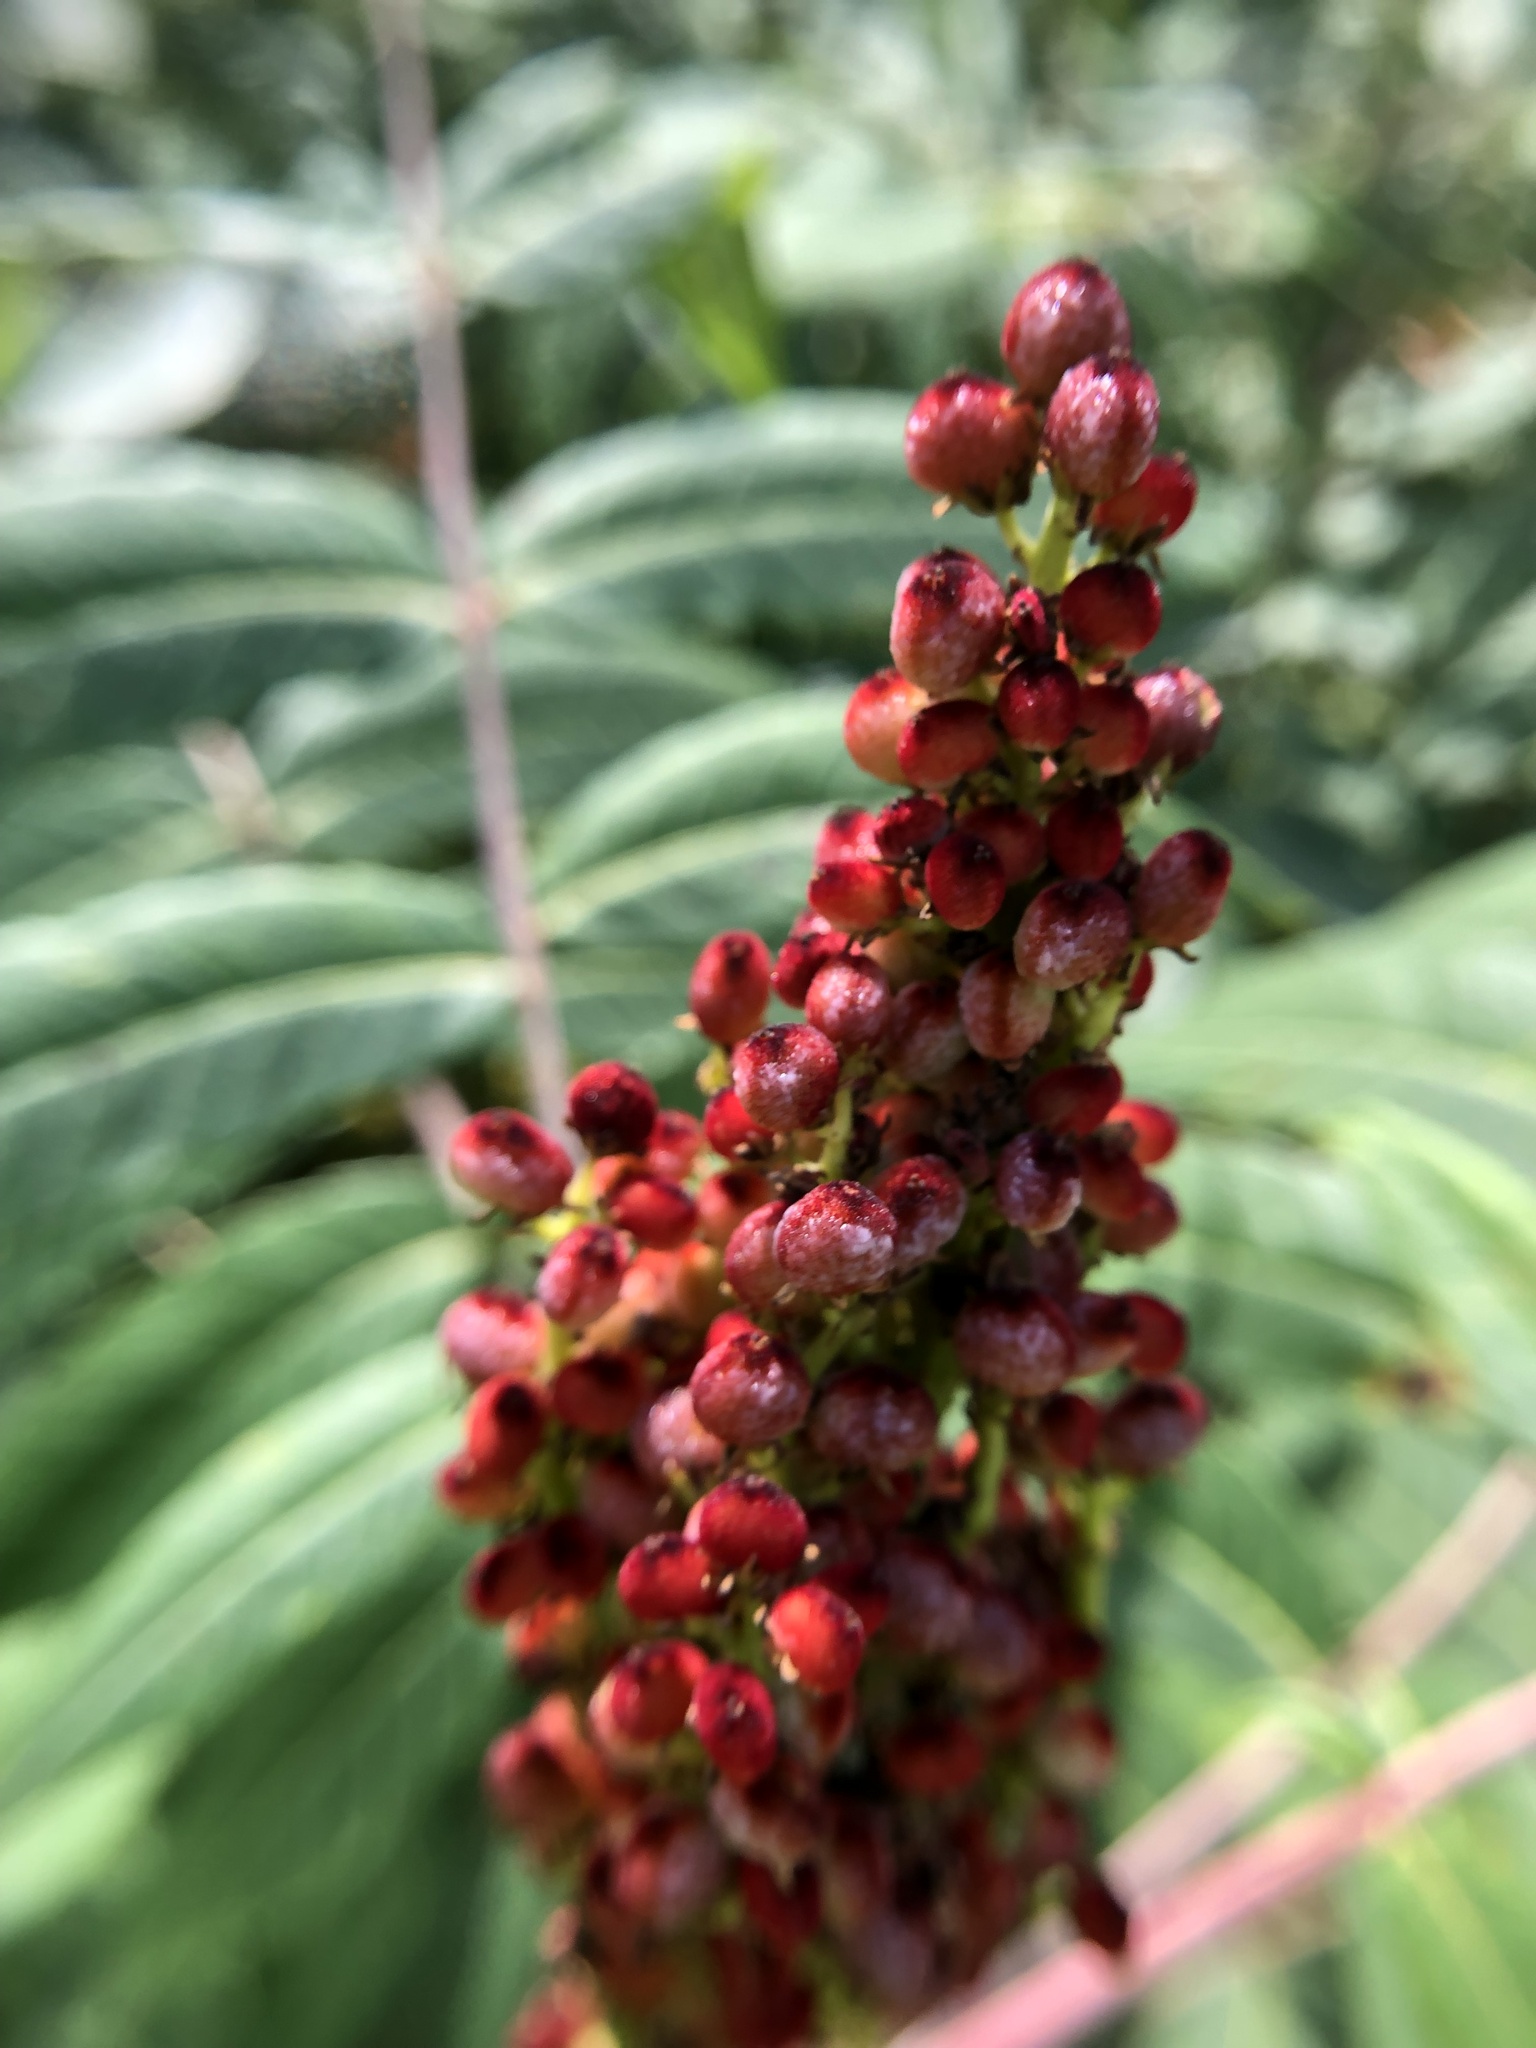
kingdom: Plantae
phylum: Tracheophyta
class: Magnoliopsida
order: Sapindales
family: Anacardiaceae
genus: Rhus
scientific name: Rhus glabra
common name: Scarlet sumac
